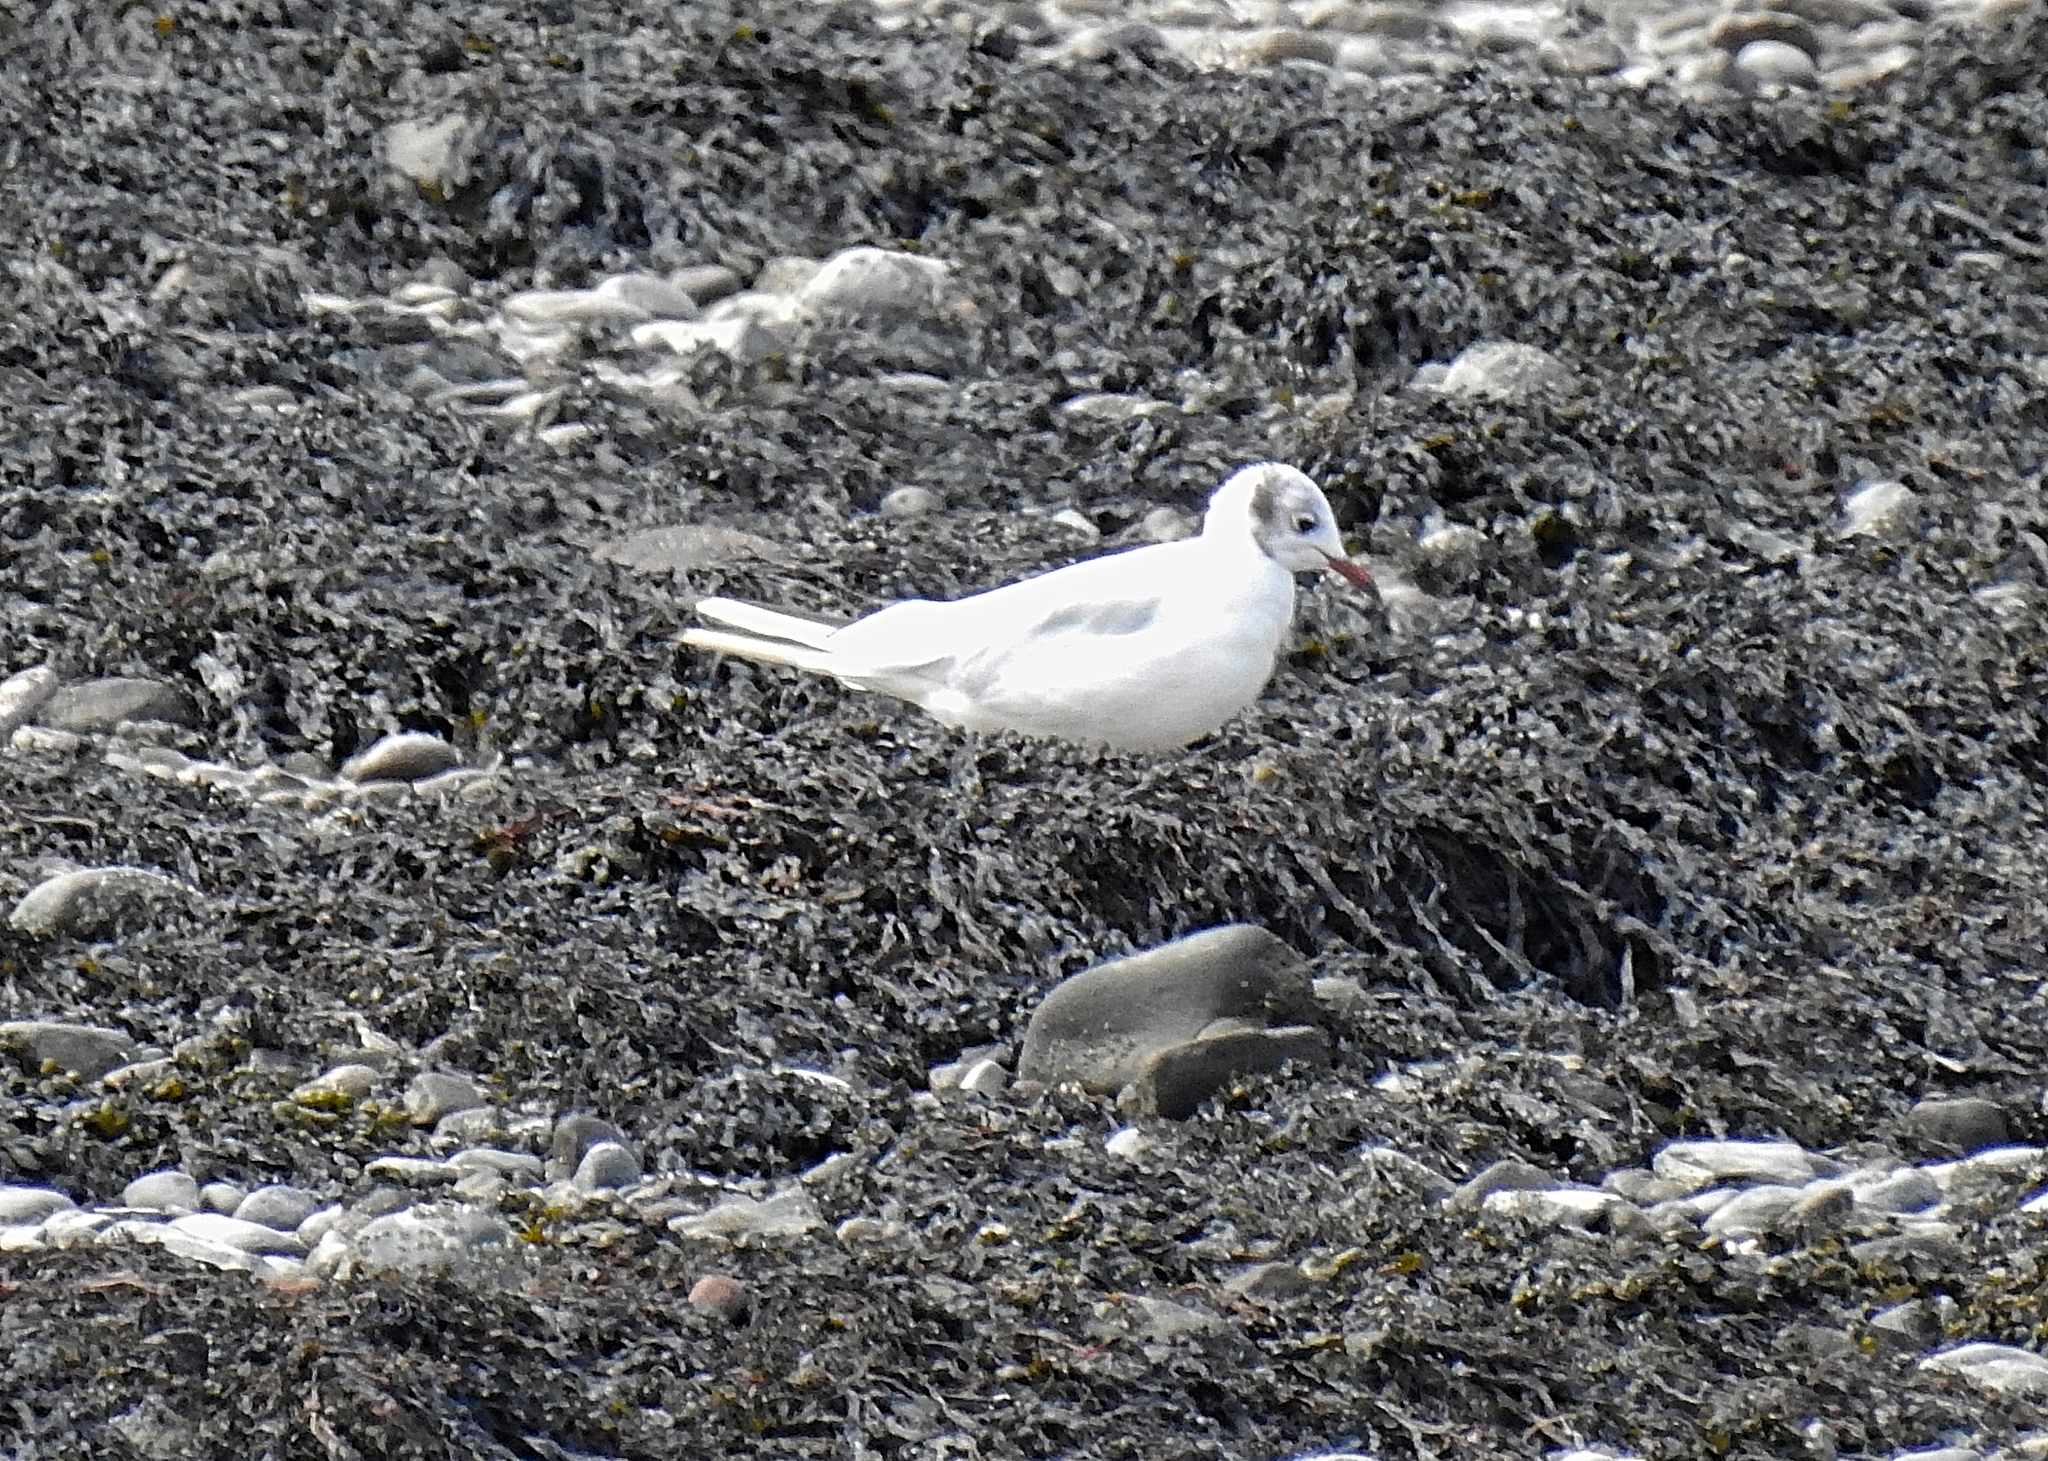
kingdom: Animalia
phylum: Chordata
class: Aves
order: Charadriiformes
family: Laridae
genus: Chroicocephalus
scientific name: Chroicocephalus ridibundus
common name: Black-headed gull
